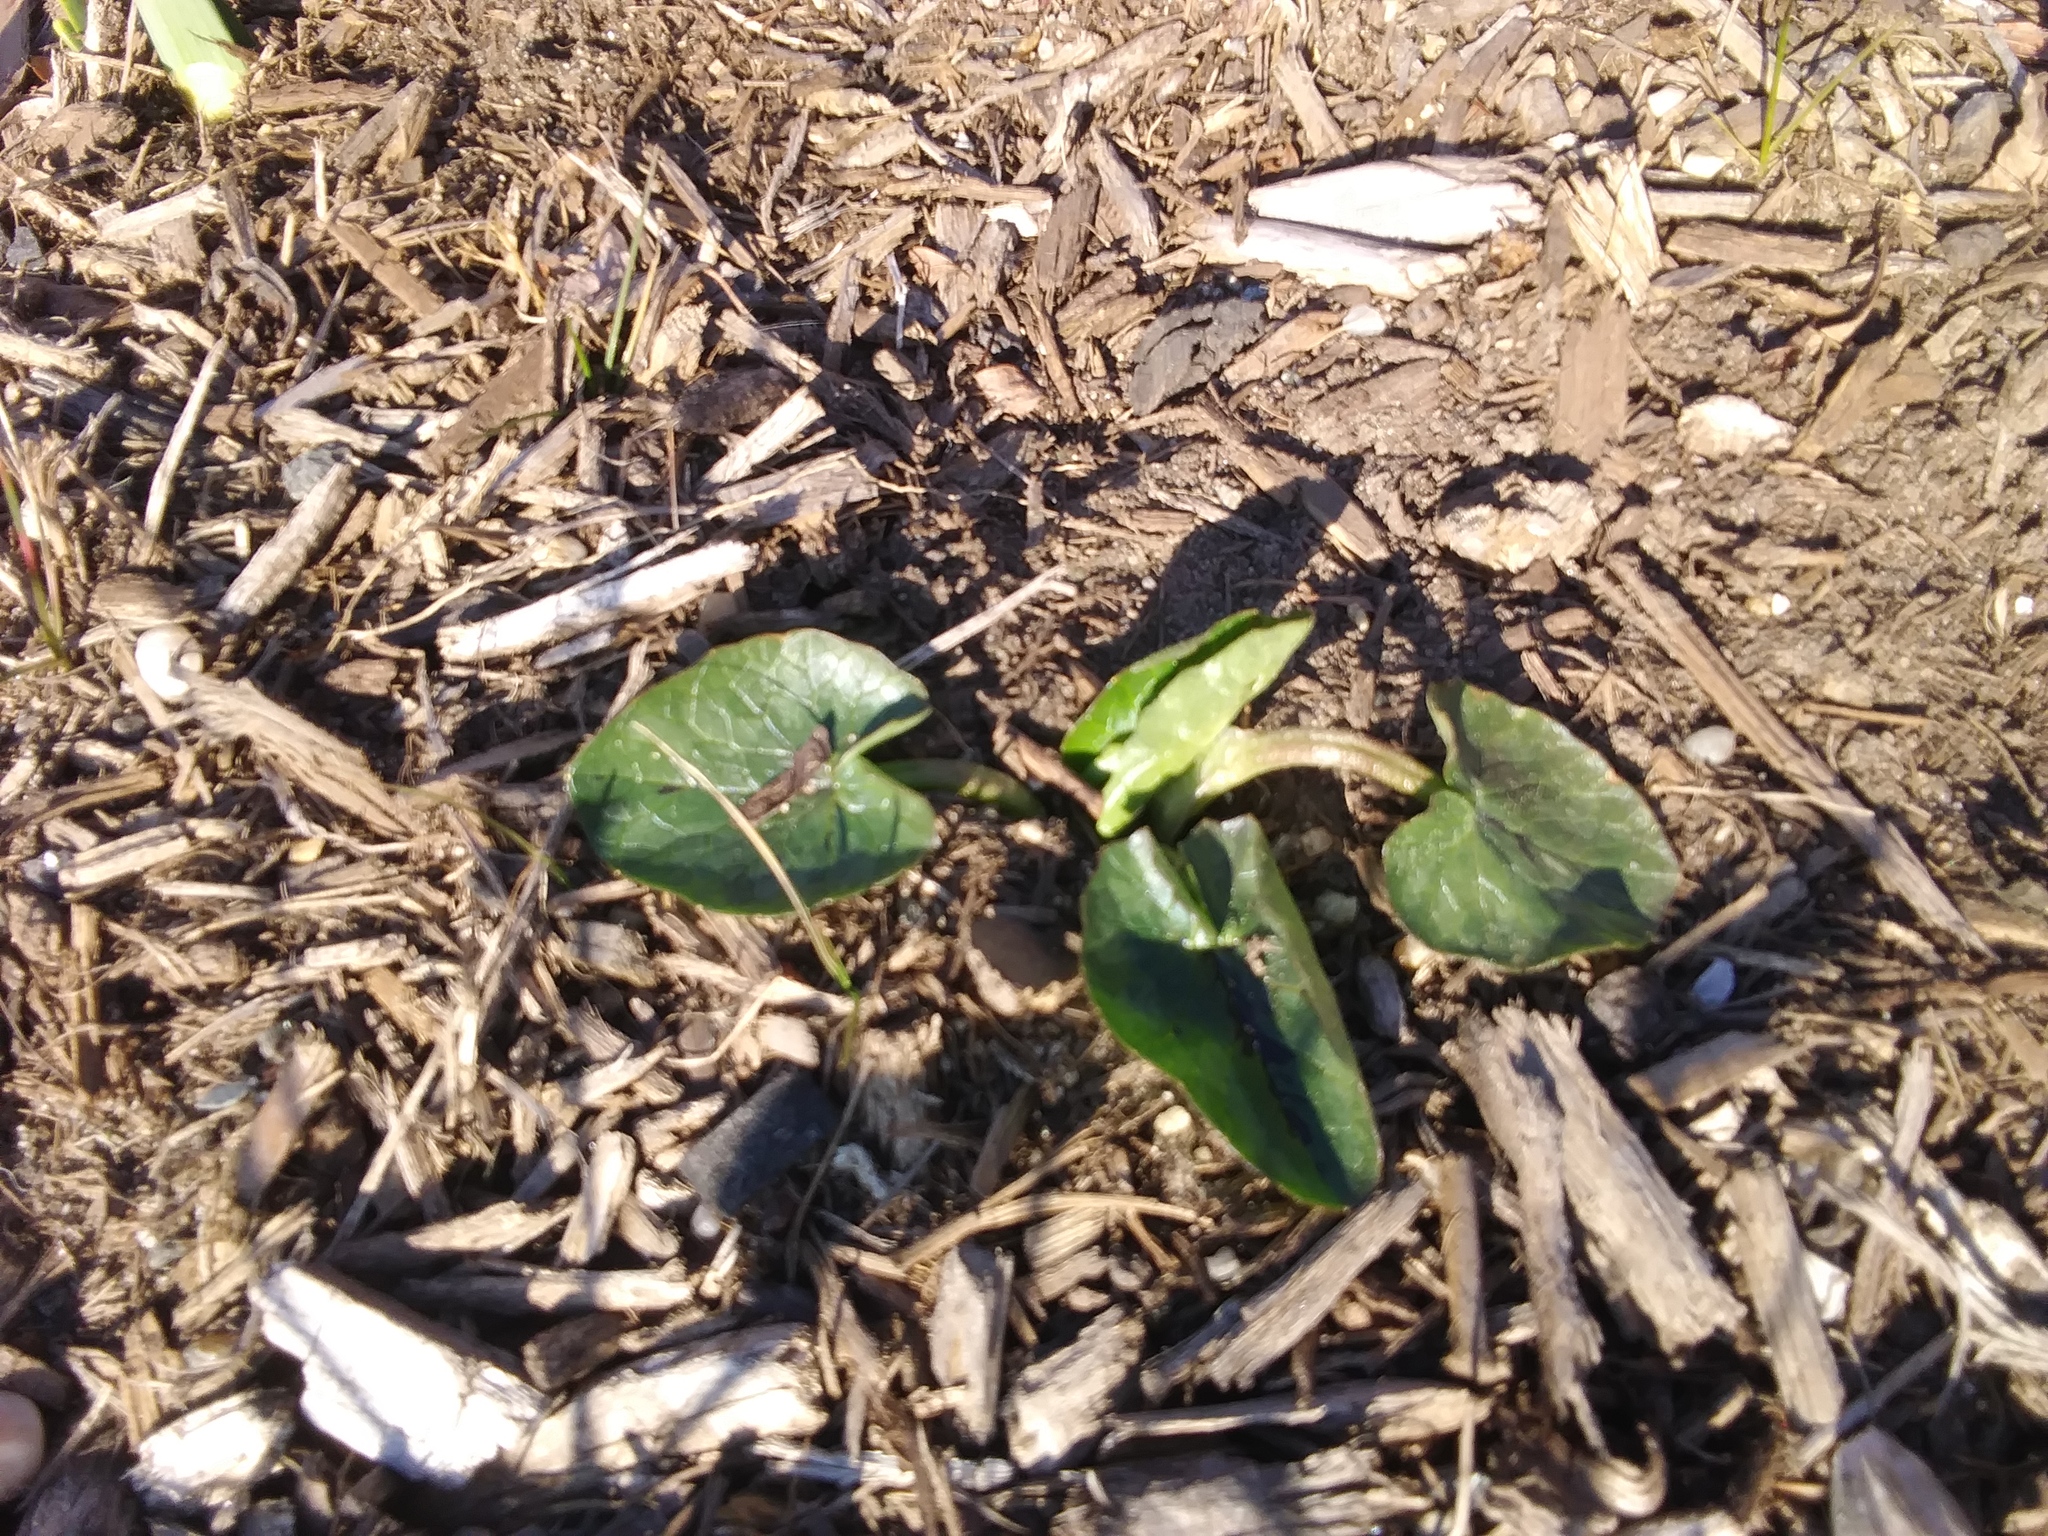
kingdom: Plantae
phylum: Tracheophyta
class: Magnoliopsida
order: Ranunculales
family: Ranunculaceae
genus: Ficaria
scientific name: Ficaria verna
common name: Lesser celandine
